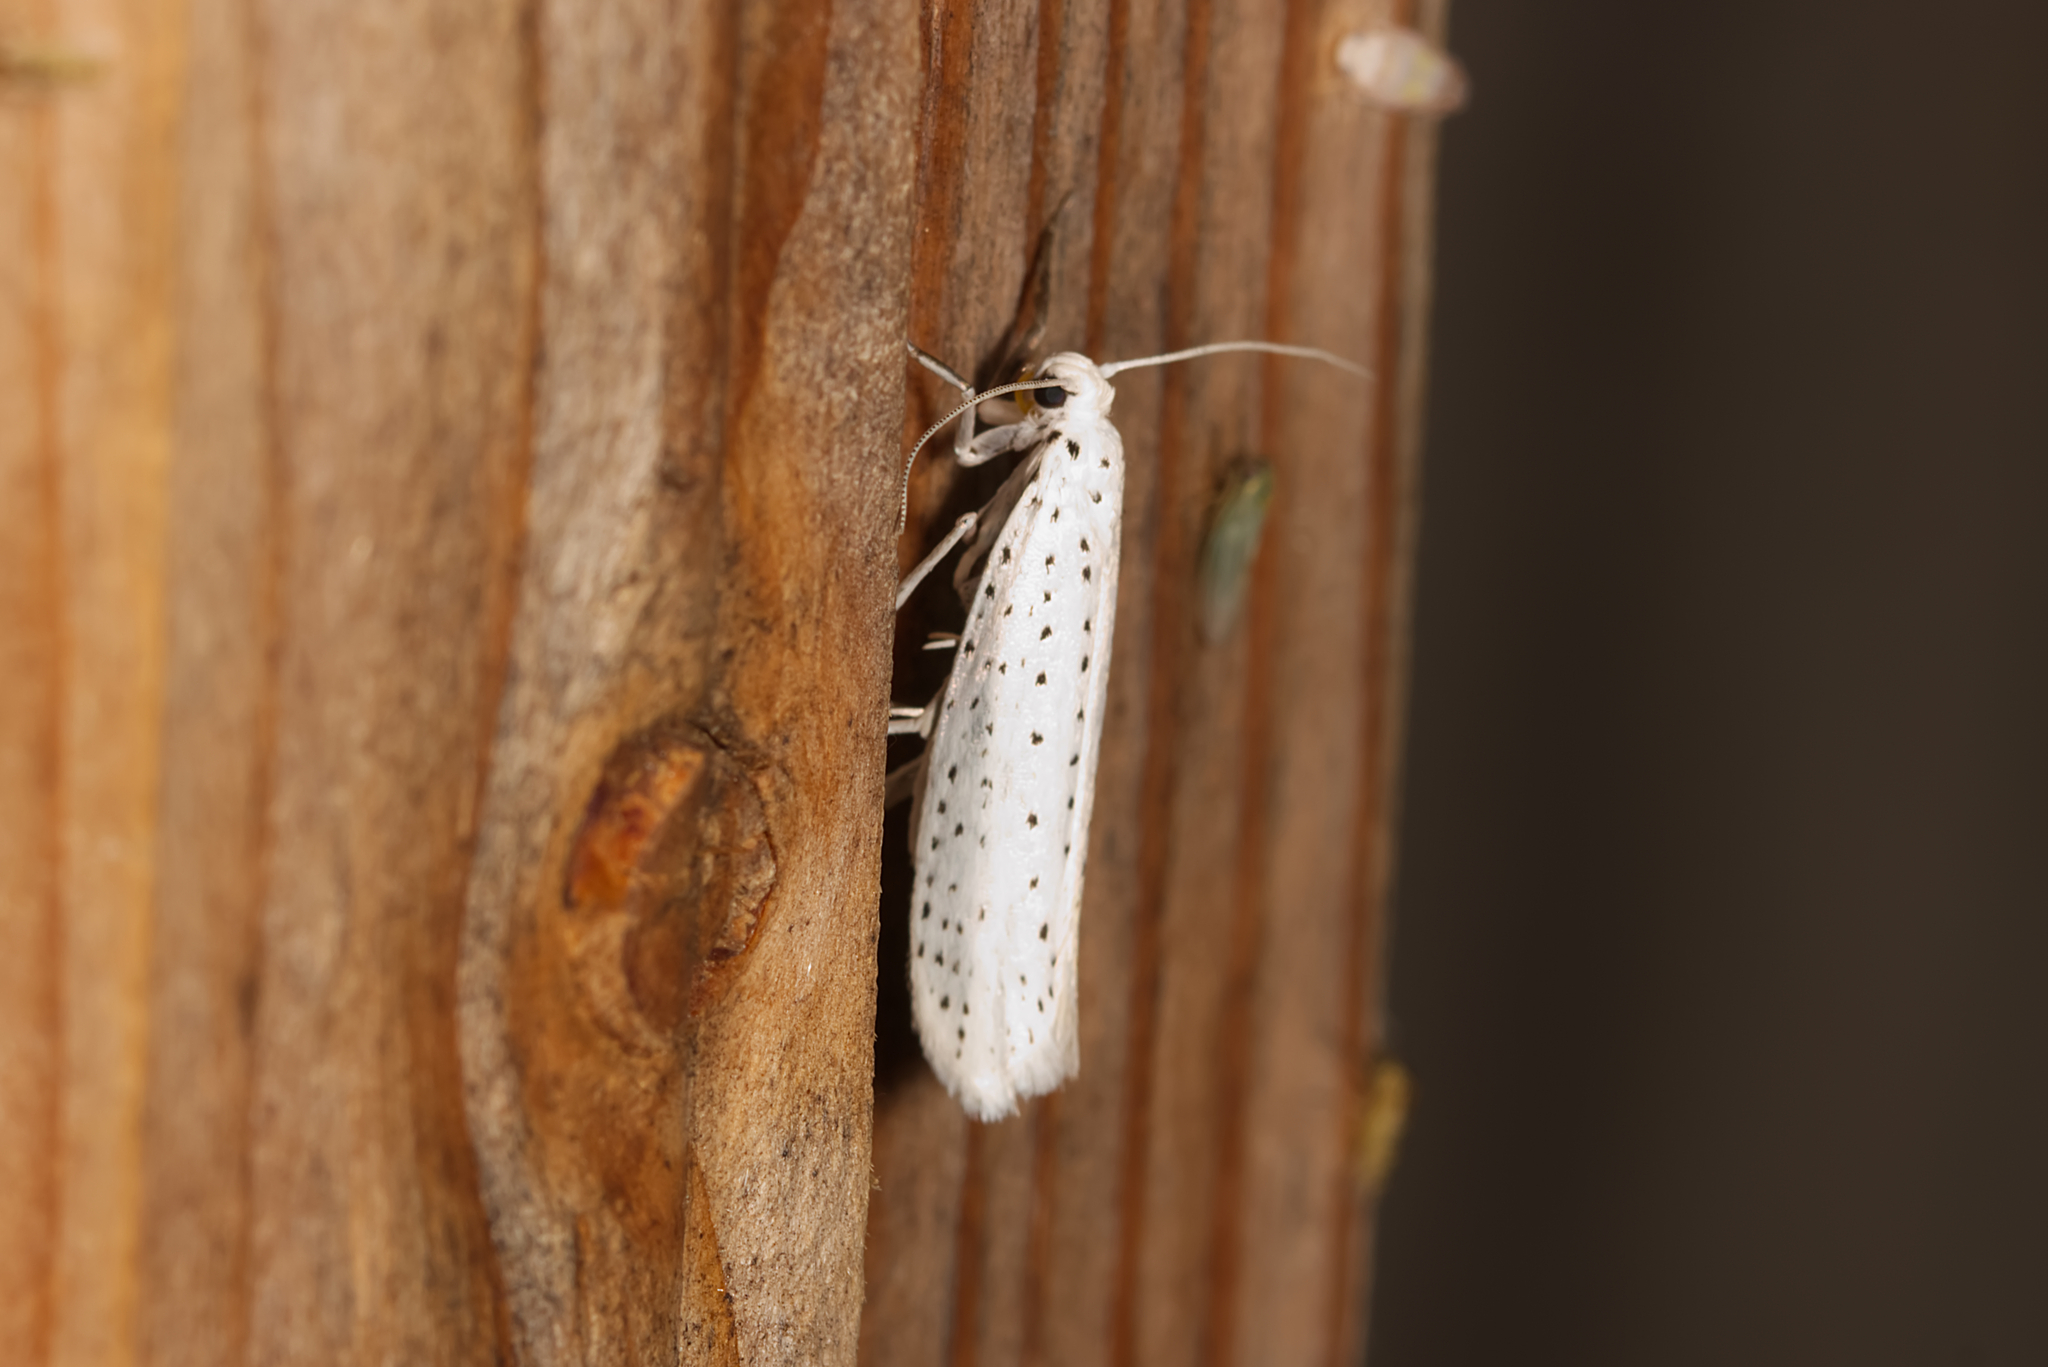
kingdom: Animalia
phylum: Arthropoda
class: Insecta
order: Lepidoptera
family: Yponomeutidae
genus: Yponomeuta
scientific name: Yponomeuta evonymella
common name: Bird-cherry ermine
